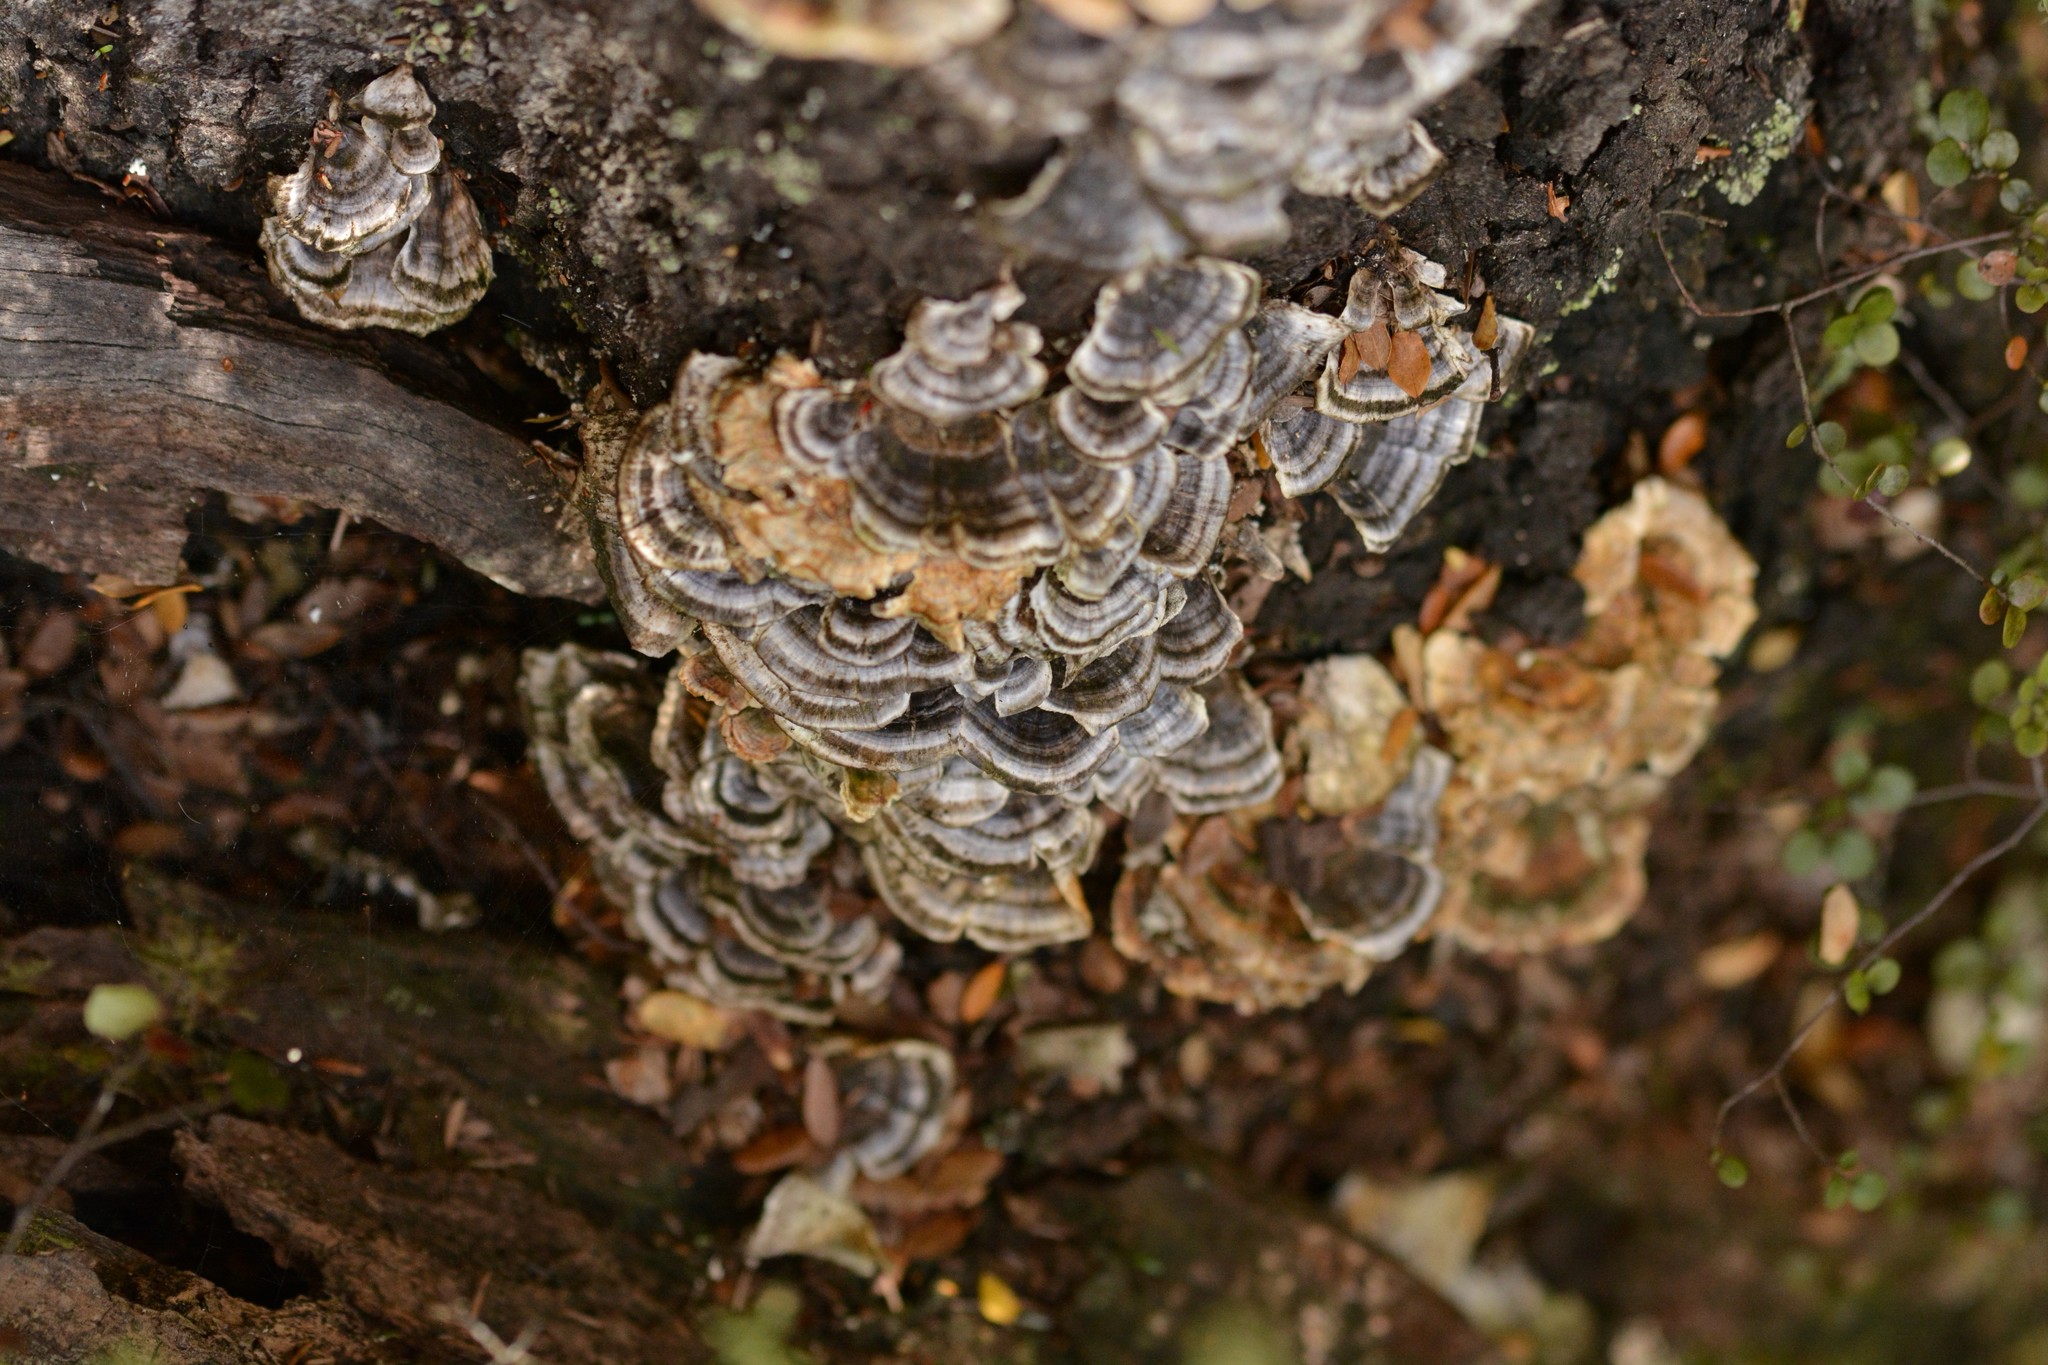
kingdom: Fungi
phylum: Basidiomycota
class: Agaricomycetes
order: Polyporales
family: Polyporaceae
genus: Trametes
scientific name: Trametes versicolor
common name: Turkeytail
